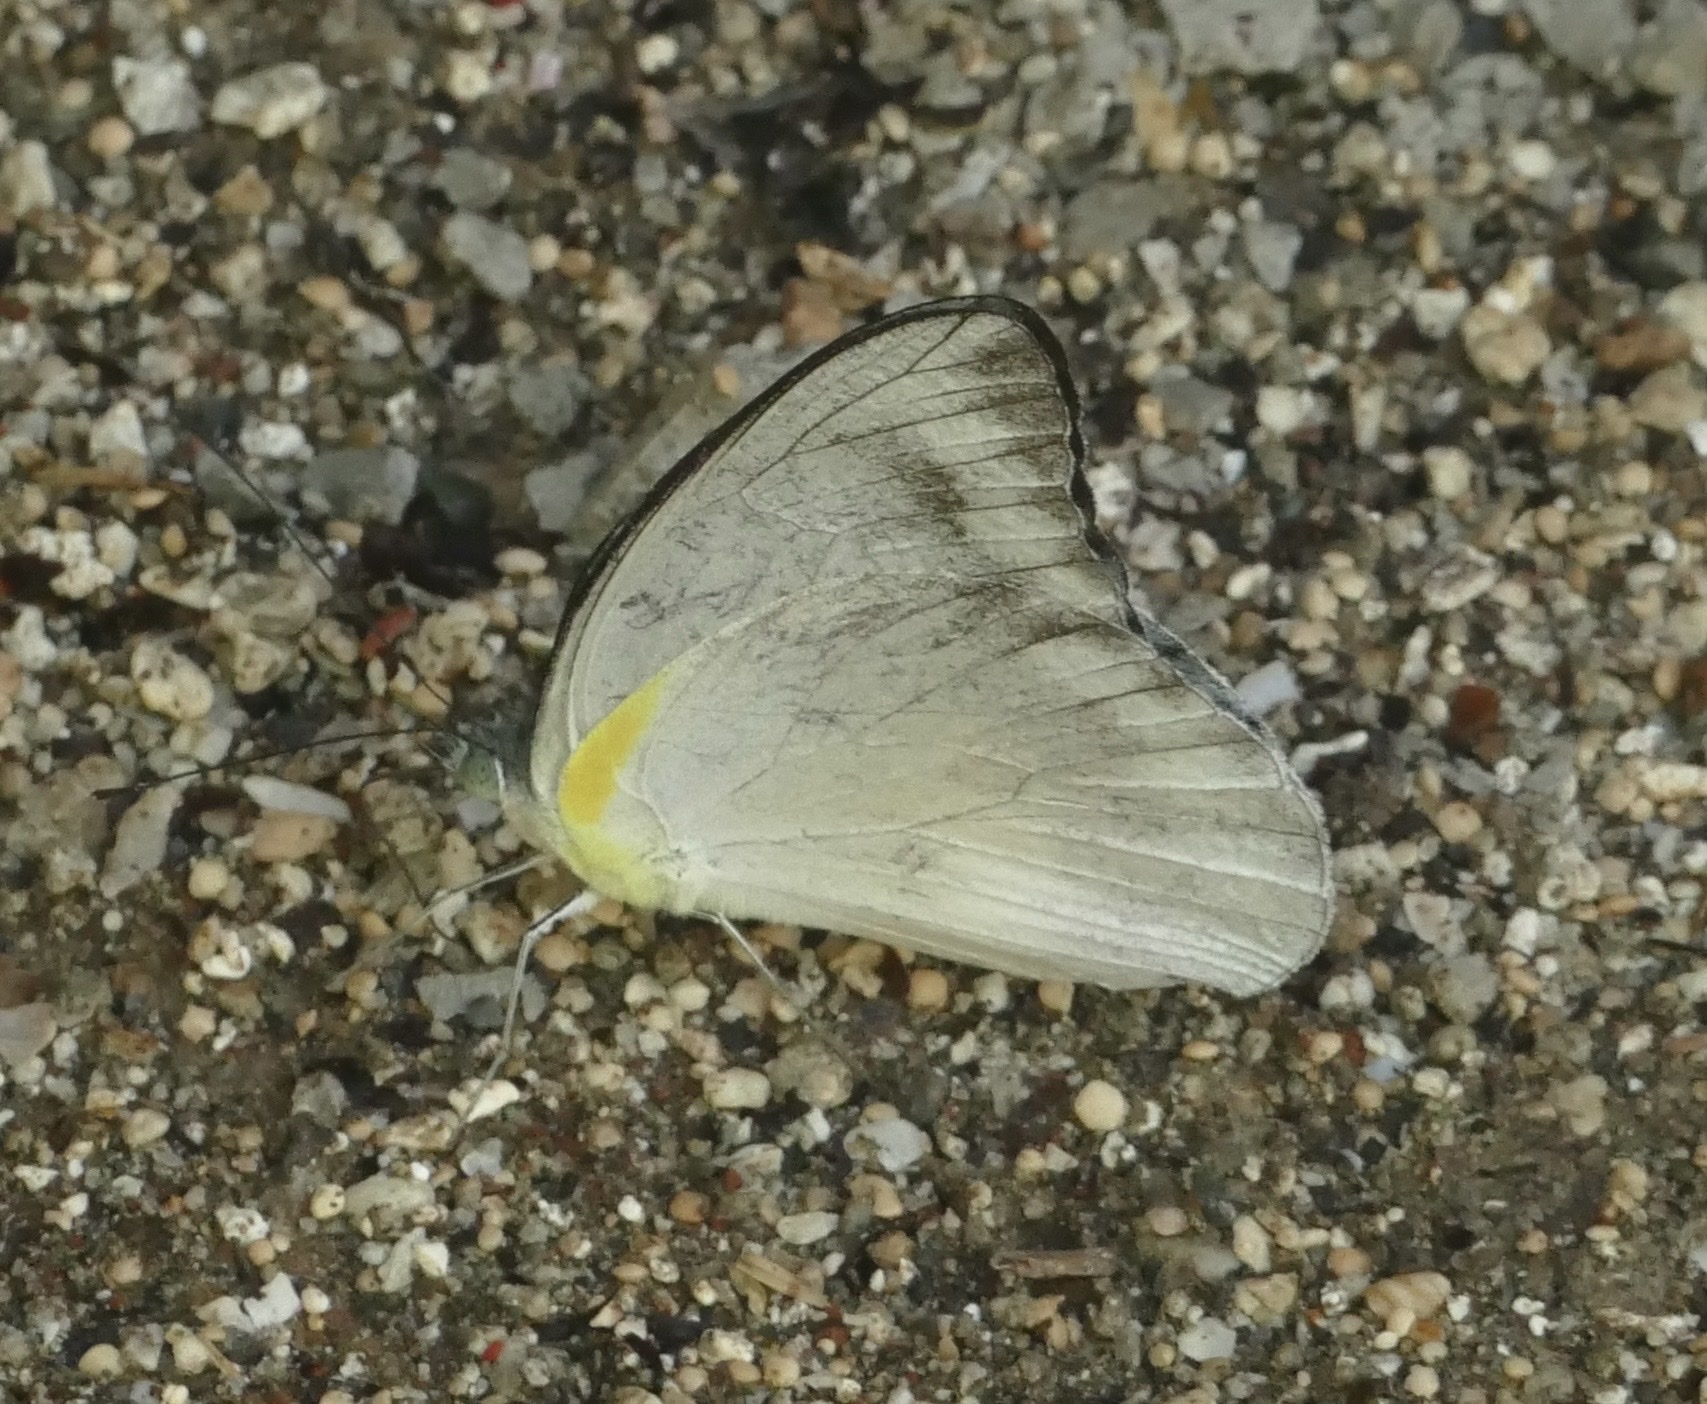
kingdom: Animalia
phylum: Arthropoda
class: Insecta
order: Lepidoptera
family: Pieridae
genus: Appias
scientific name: Appias celestina
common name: Common migrant
